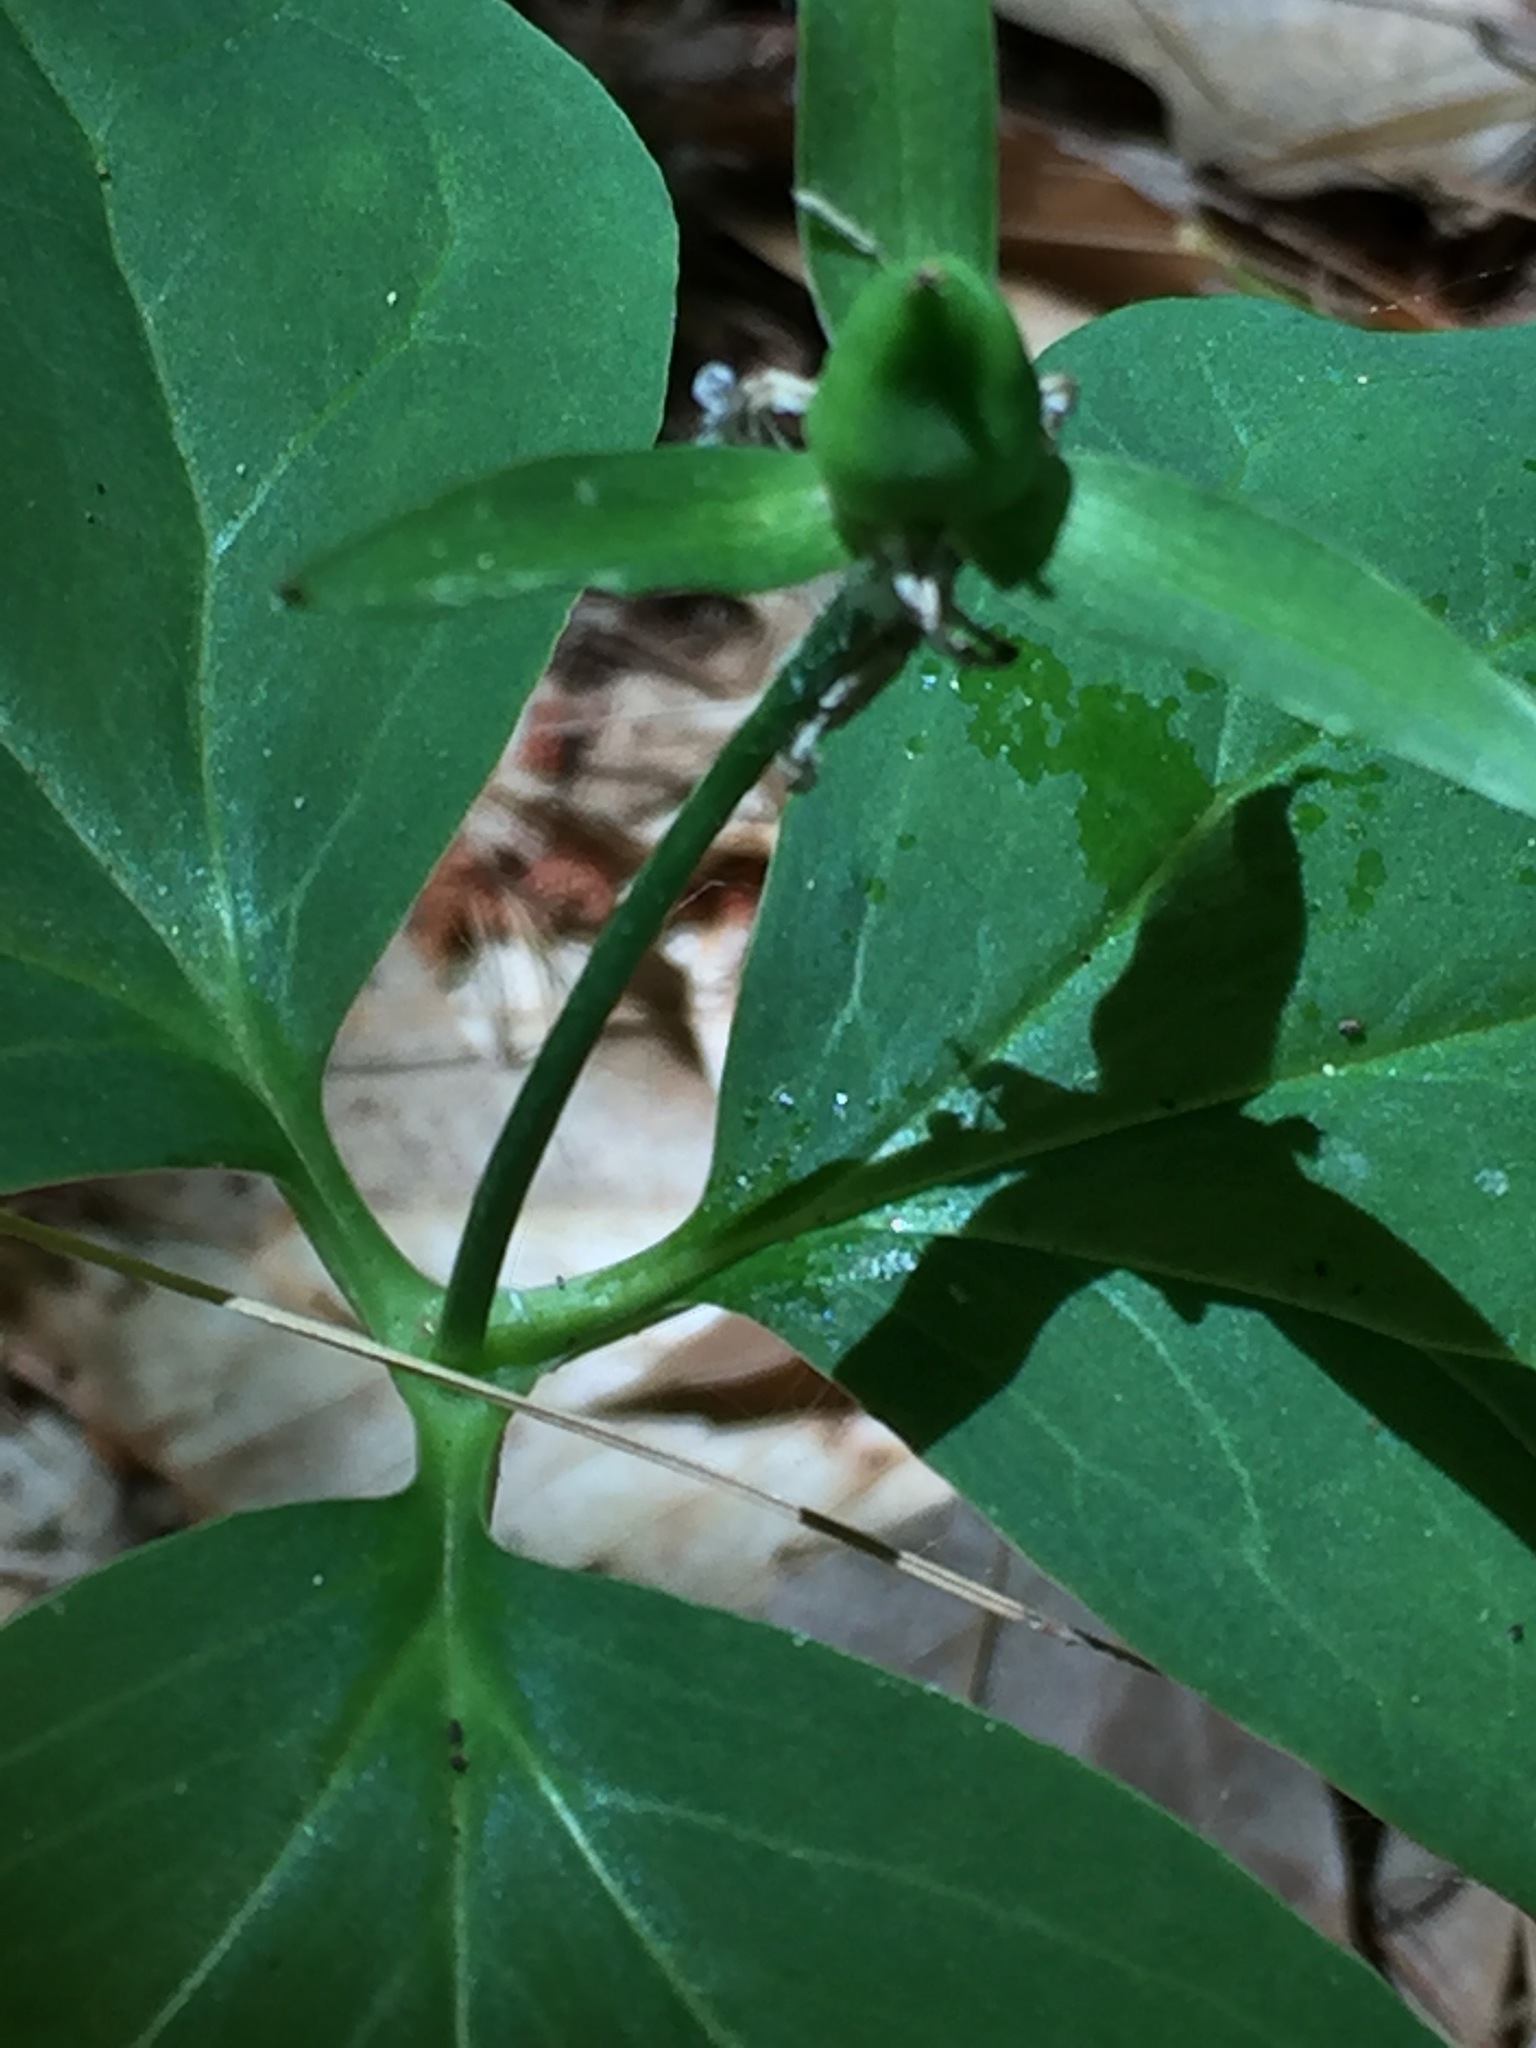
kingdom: Plantae
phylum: Tracheophyta
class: Liliopsida
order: Liliales
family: Melanthiaceae
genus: Trillium
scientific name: Trillium undulatum
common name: Paint trillium
